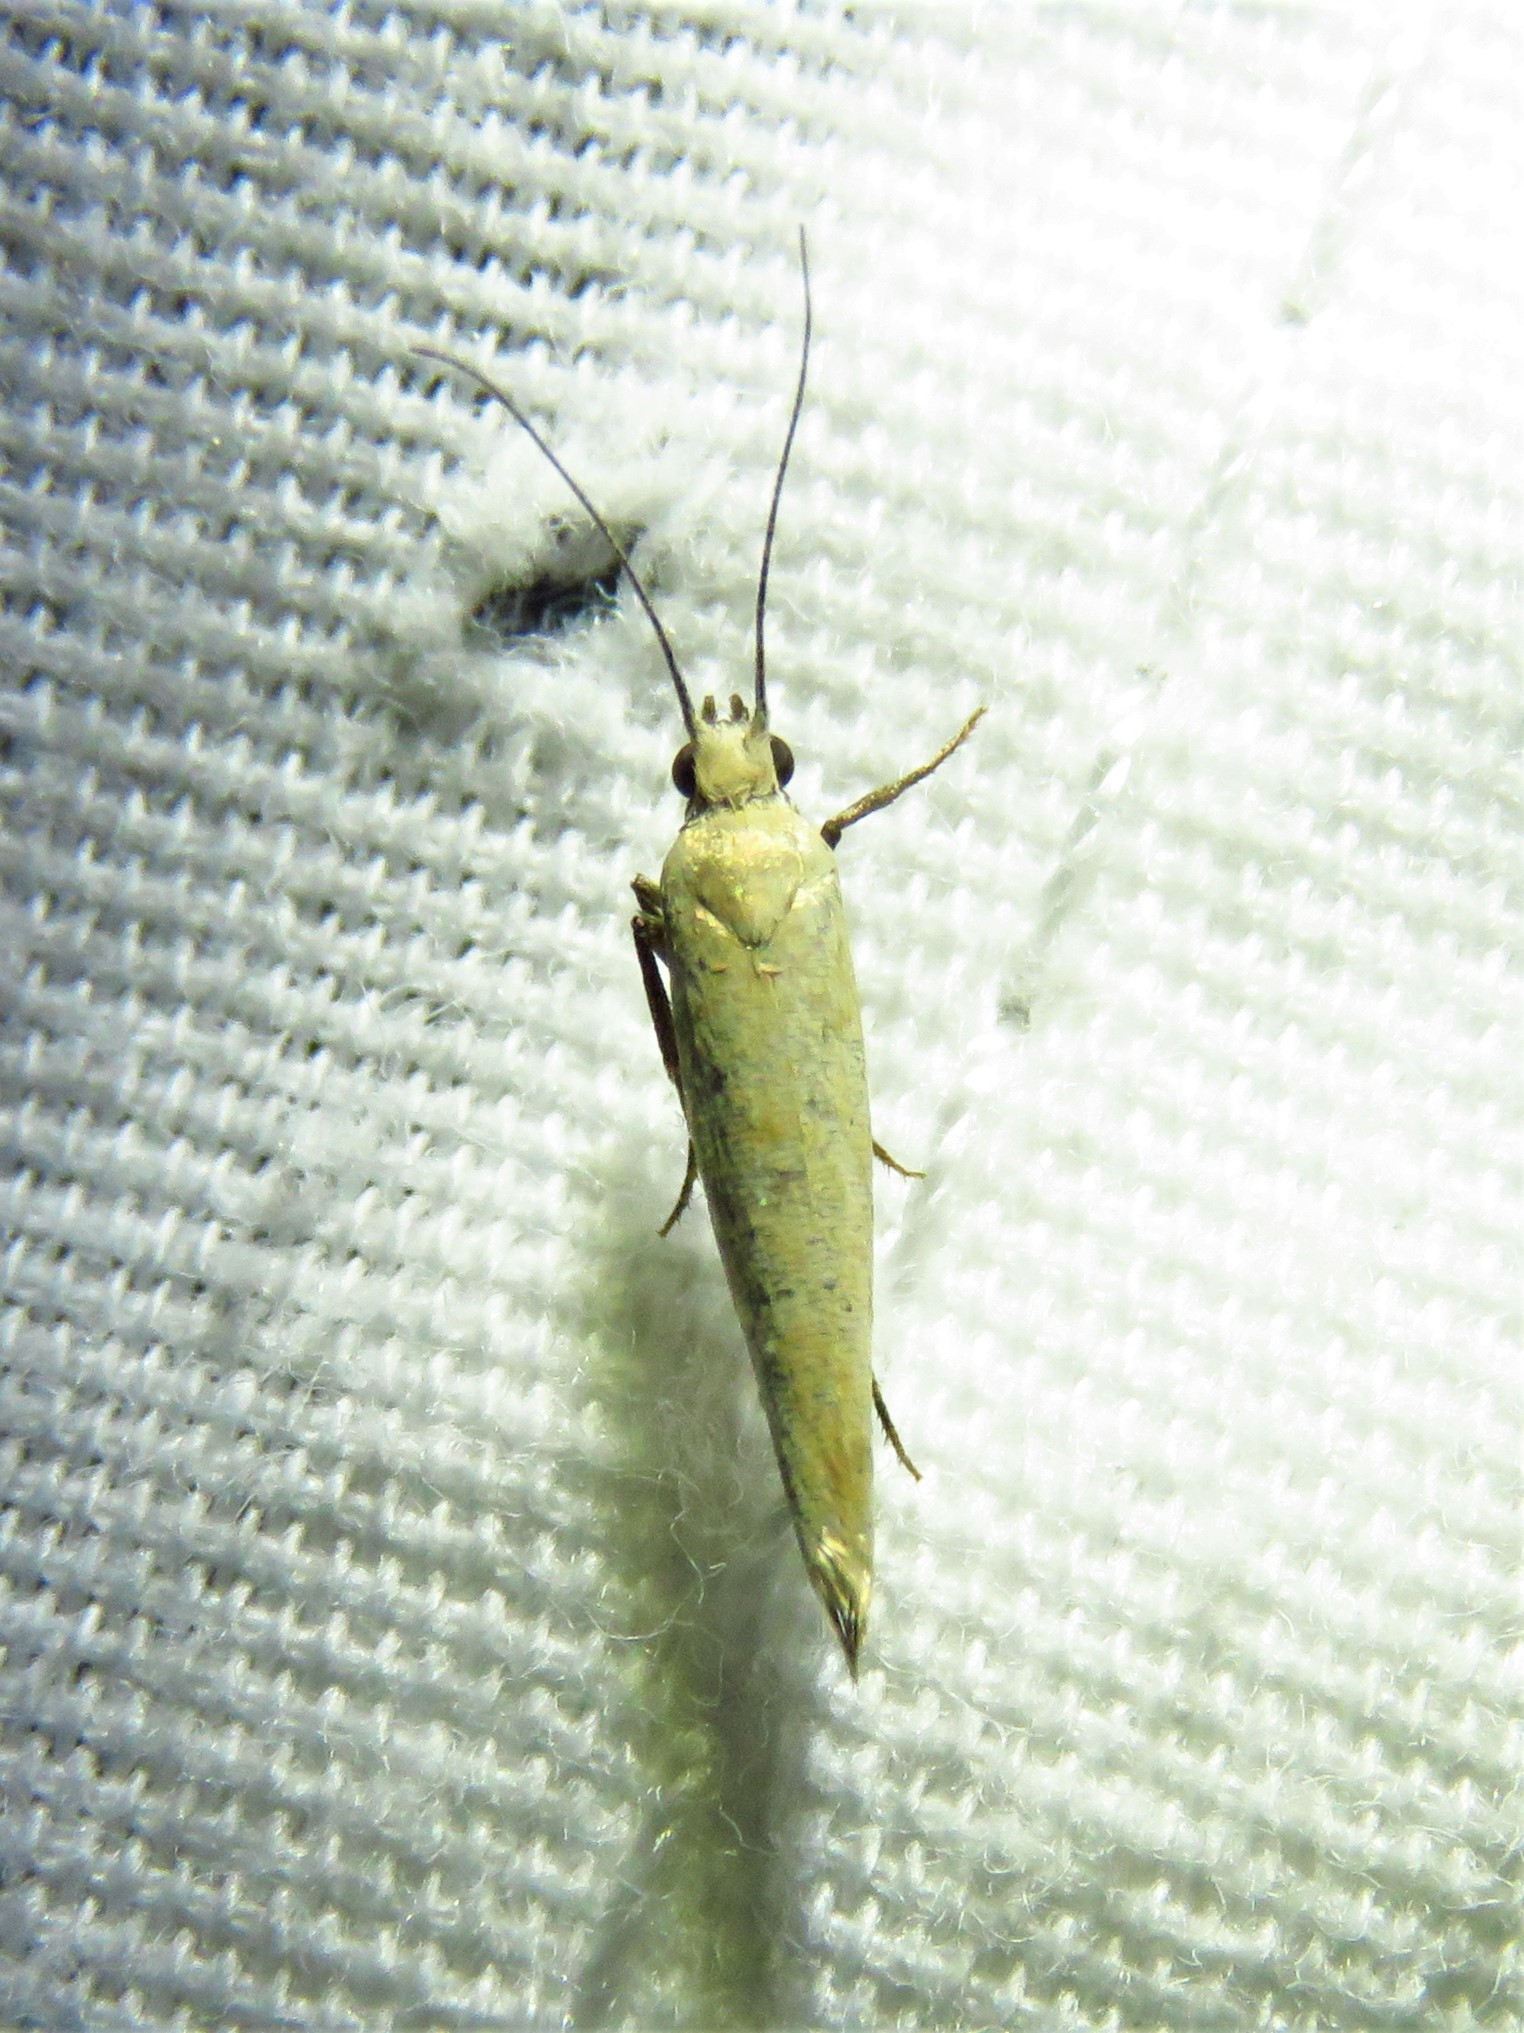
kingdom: Animalia
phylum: Arthropoda
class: Insecta
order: Lepidoptera
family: Ypsolophidae
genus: Ypsolopha
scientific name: Ypsolopha
